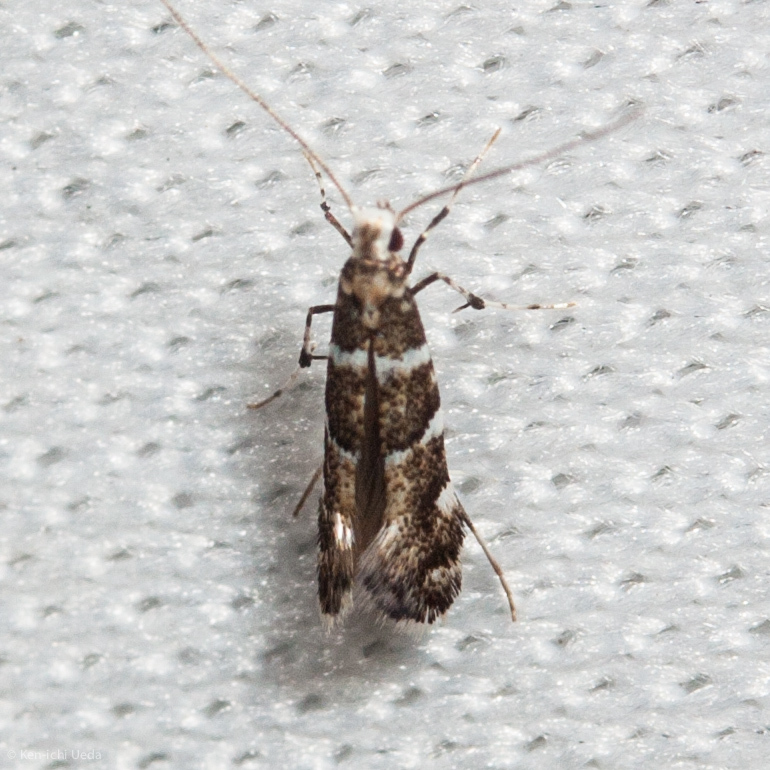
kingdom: Animalia
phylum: Arthropoda
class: Insecta
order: Lepidoptera
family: Gracillariidae
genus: Marmara
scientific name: Marmara arbutiella
